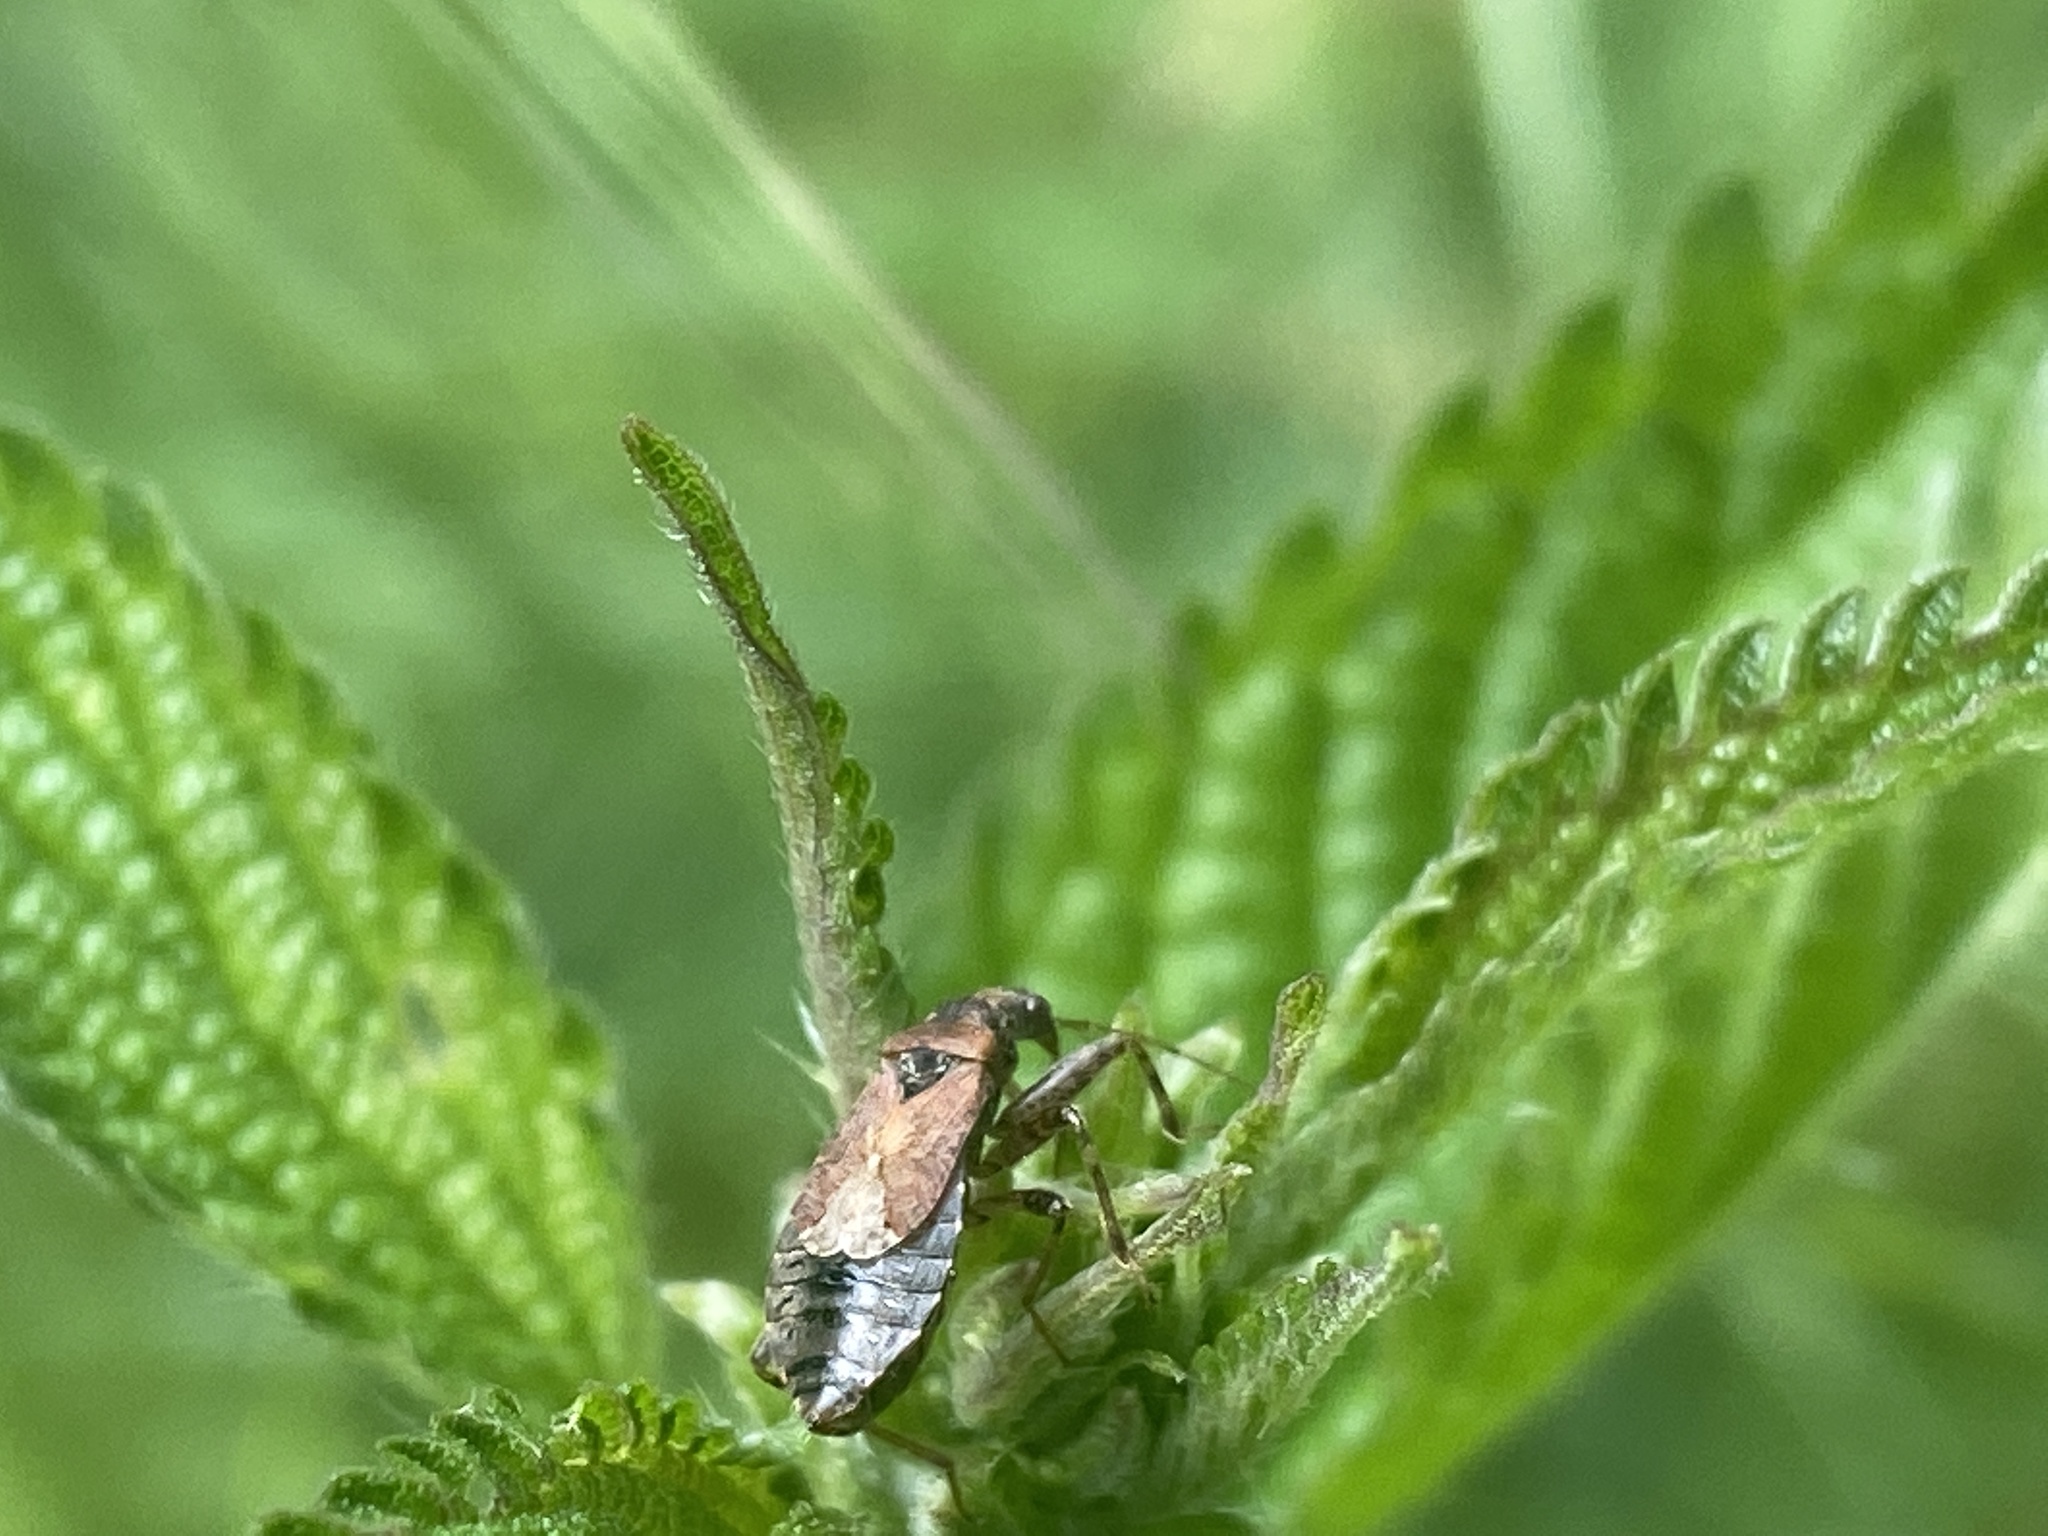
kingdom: Animalia
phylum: Arthropoda
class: Insecta
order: Hemiptera
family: Nabidae
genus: Himacerus
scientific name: Himacerus mirmicoides
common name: Ant damsel bug
